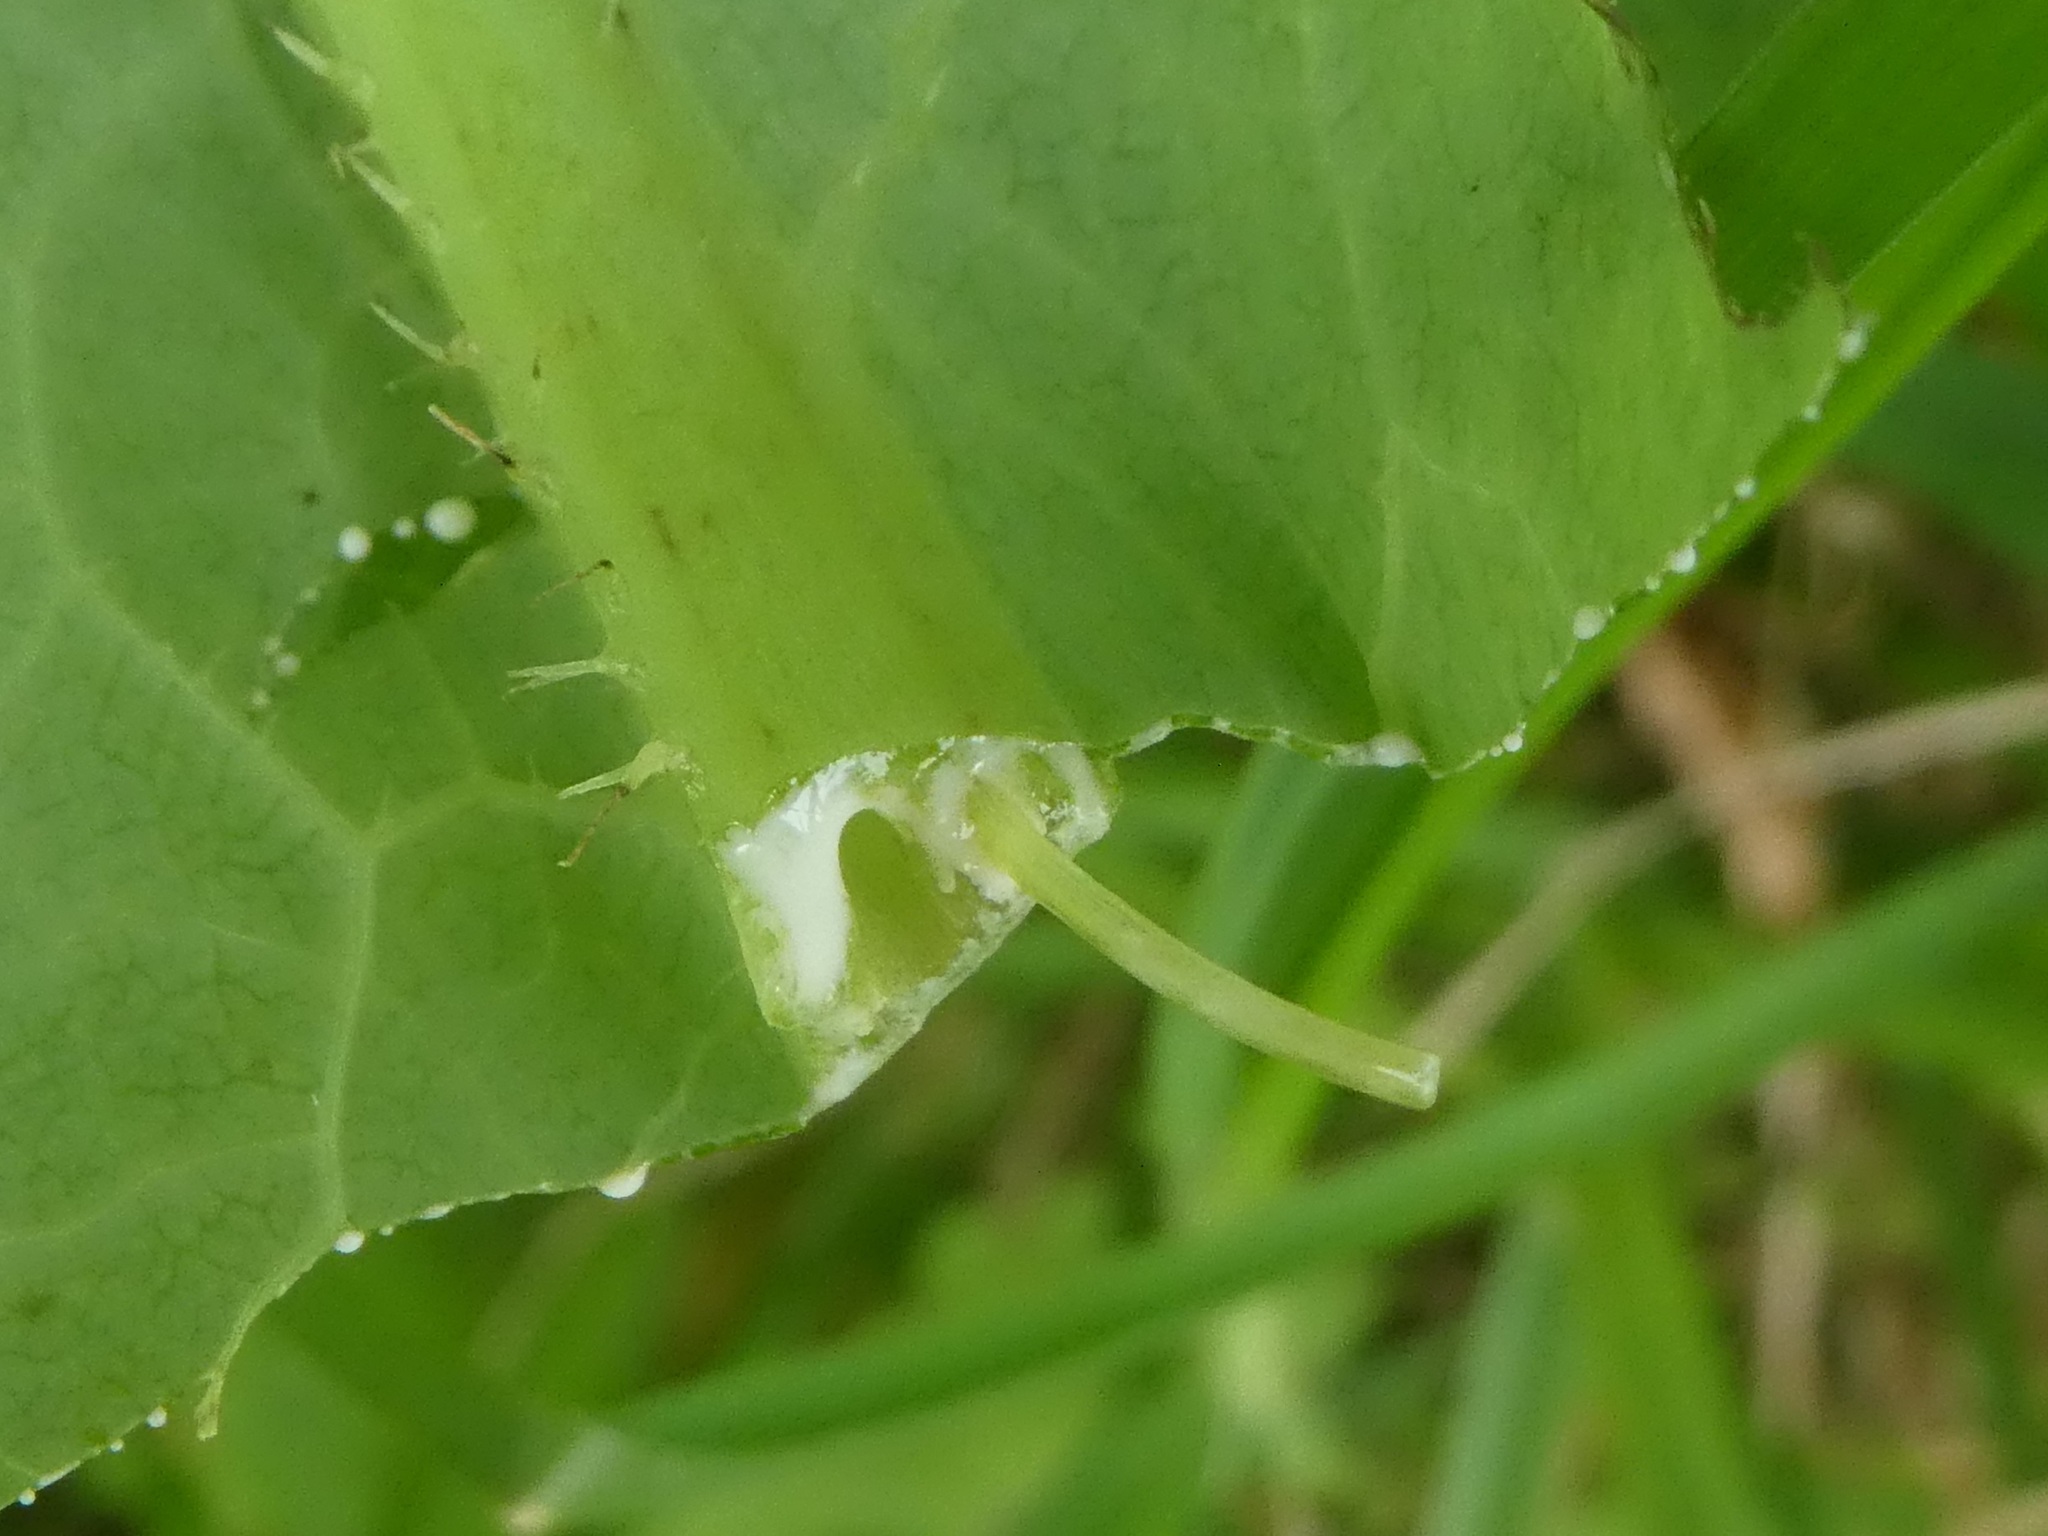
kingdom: Plantae
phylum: Tracheophyta
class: Magnoliopsida
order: Asterales
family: Asteraceae
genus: Lactuca
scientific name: Lactuca virosa
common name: Great lettuce
